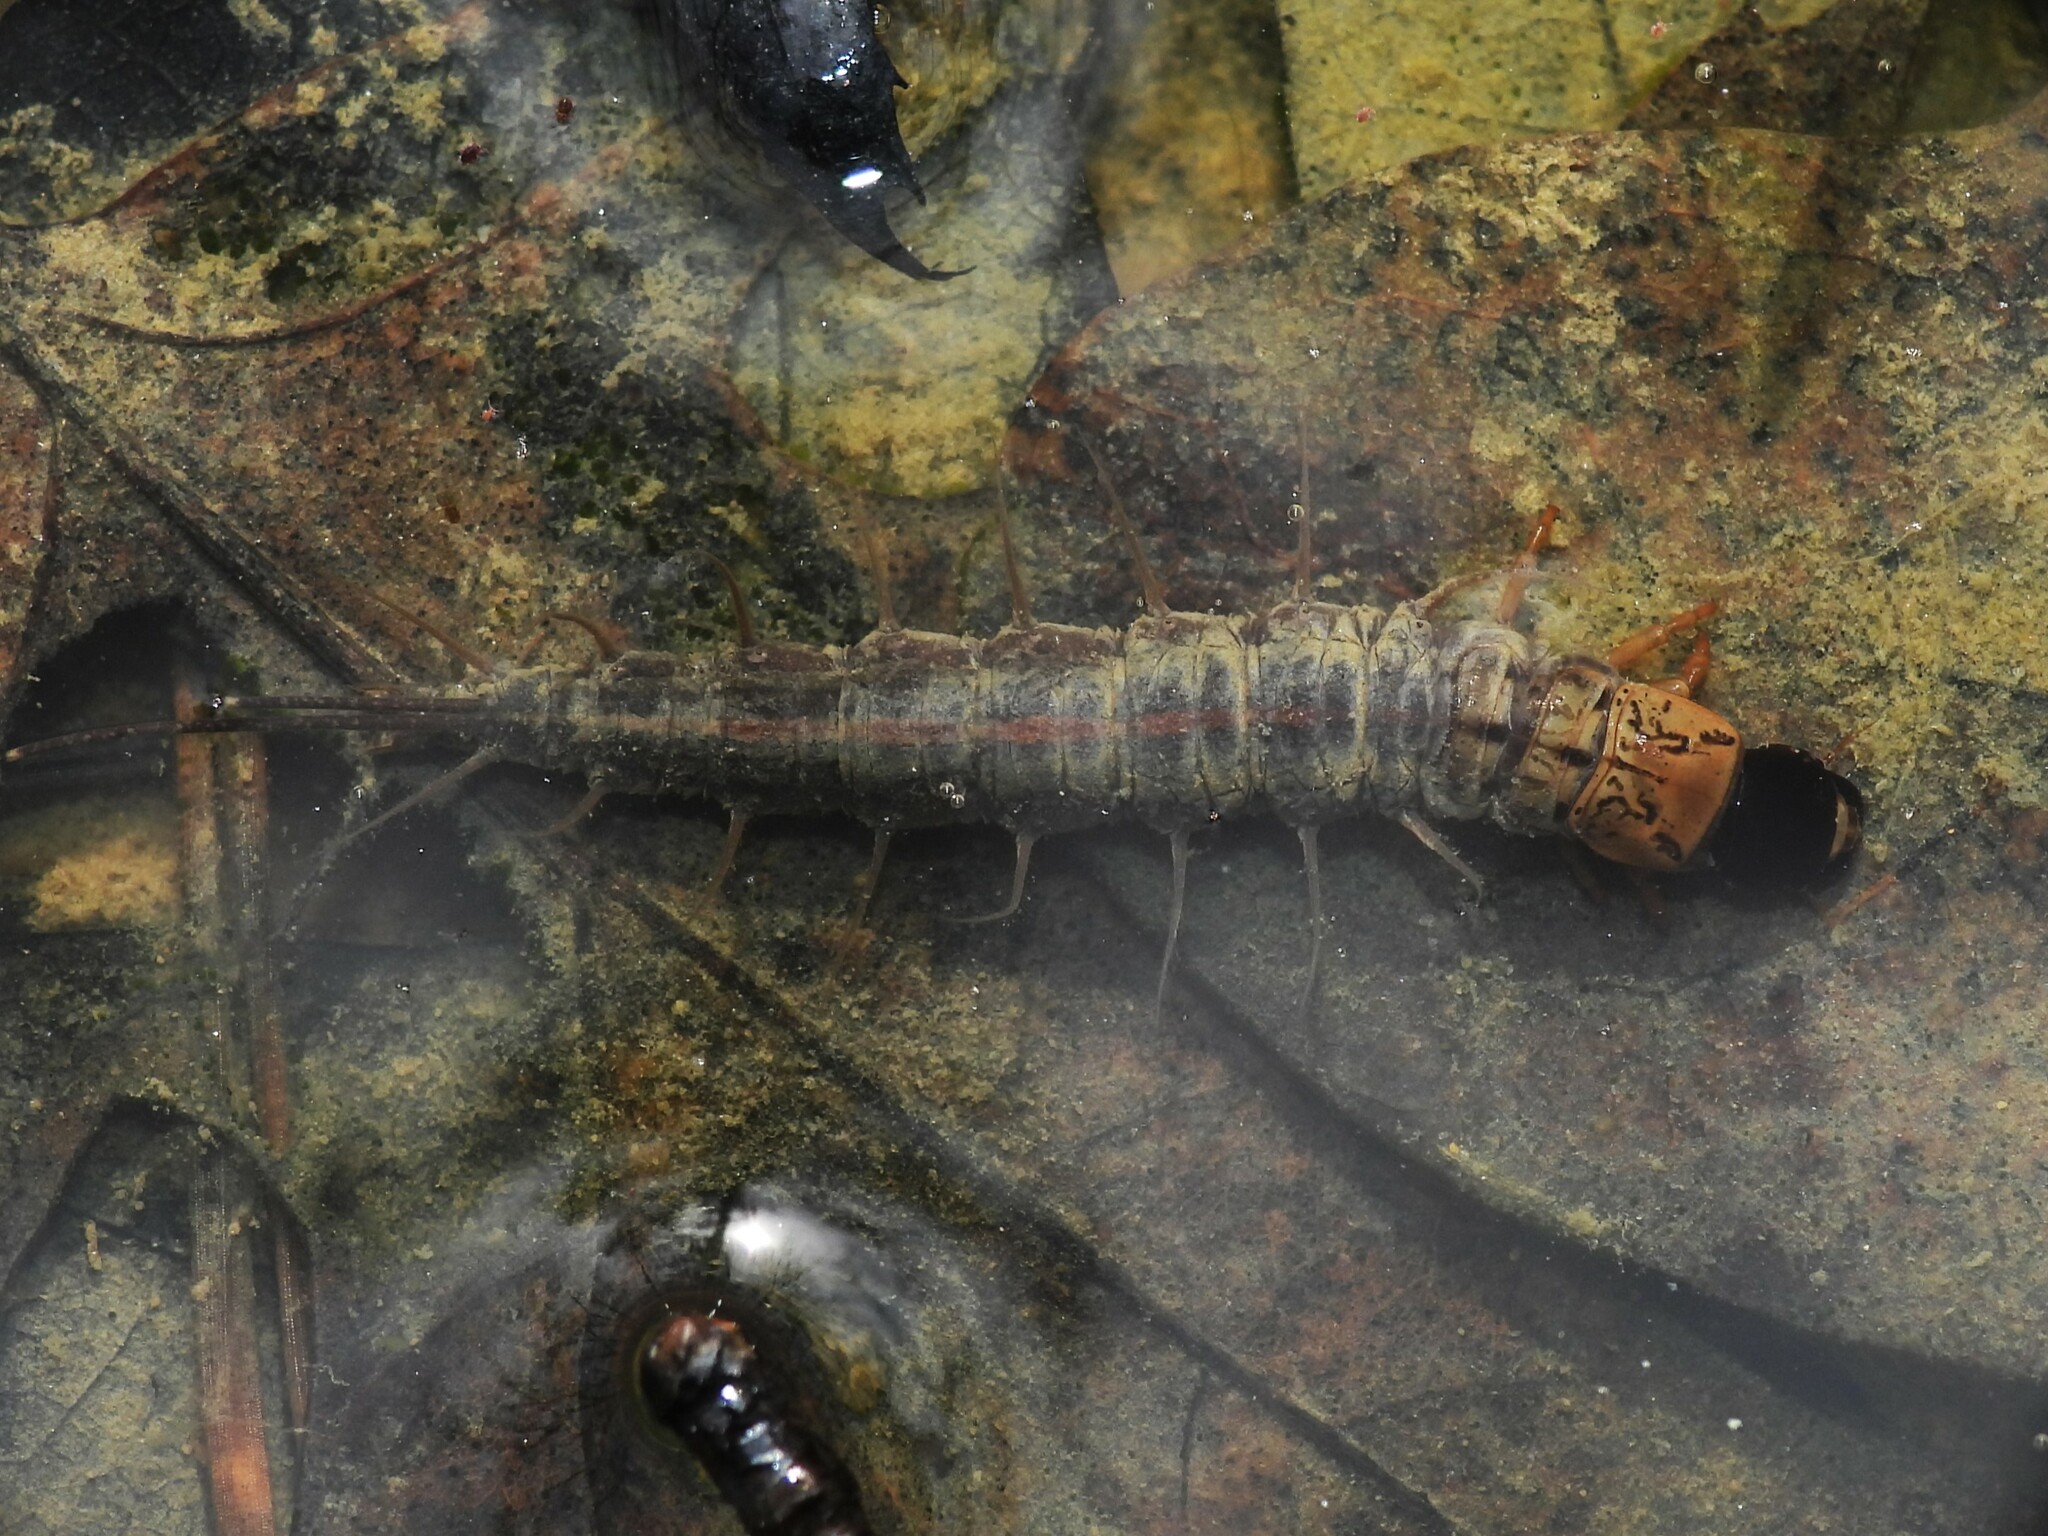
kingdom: Animalia
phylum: Arthropoda
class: Insecta
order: Megaloptera
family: Corydalidae
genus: Chauliodes
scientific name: Chauliodes pectinicornis
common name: Summer fishfly
